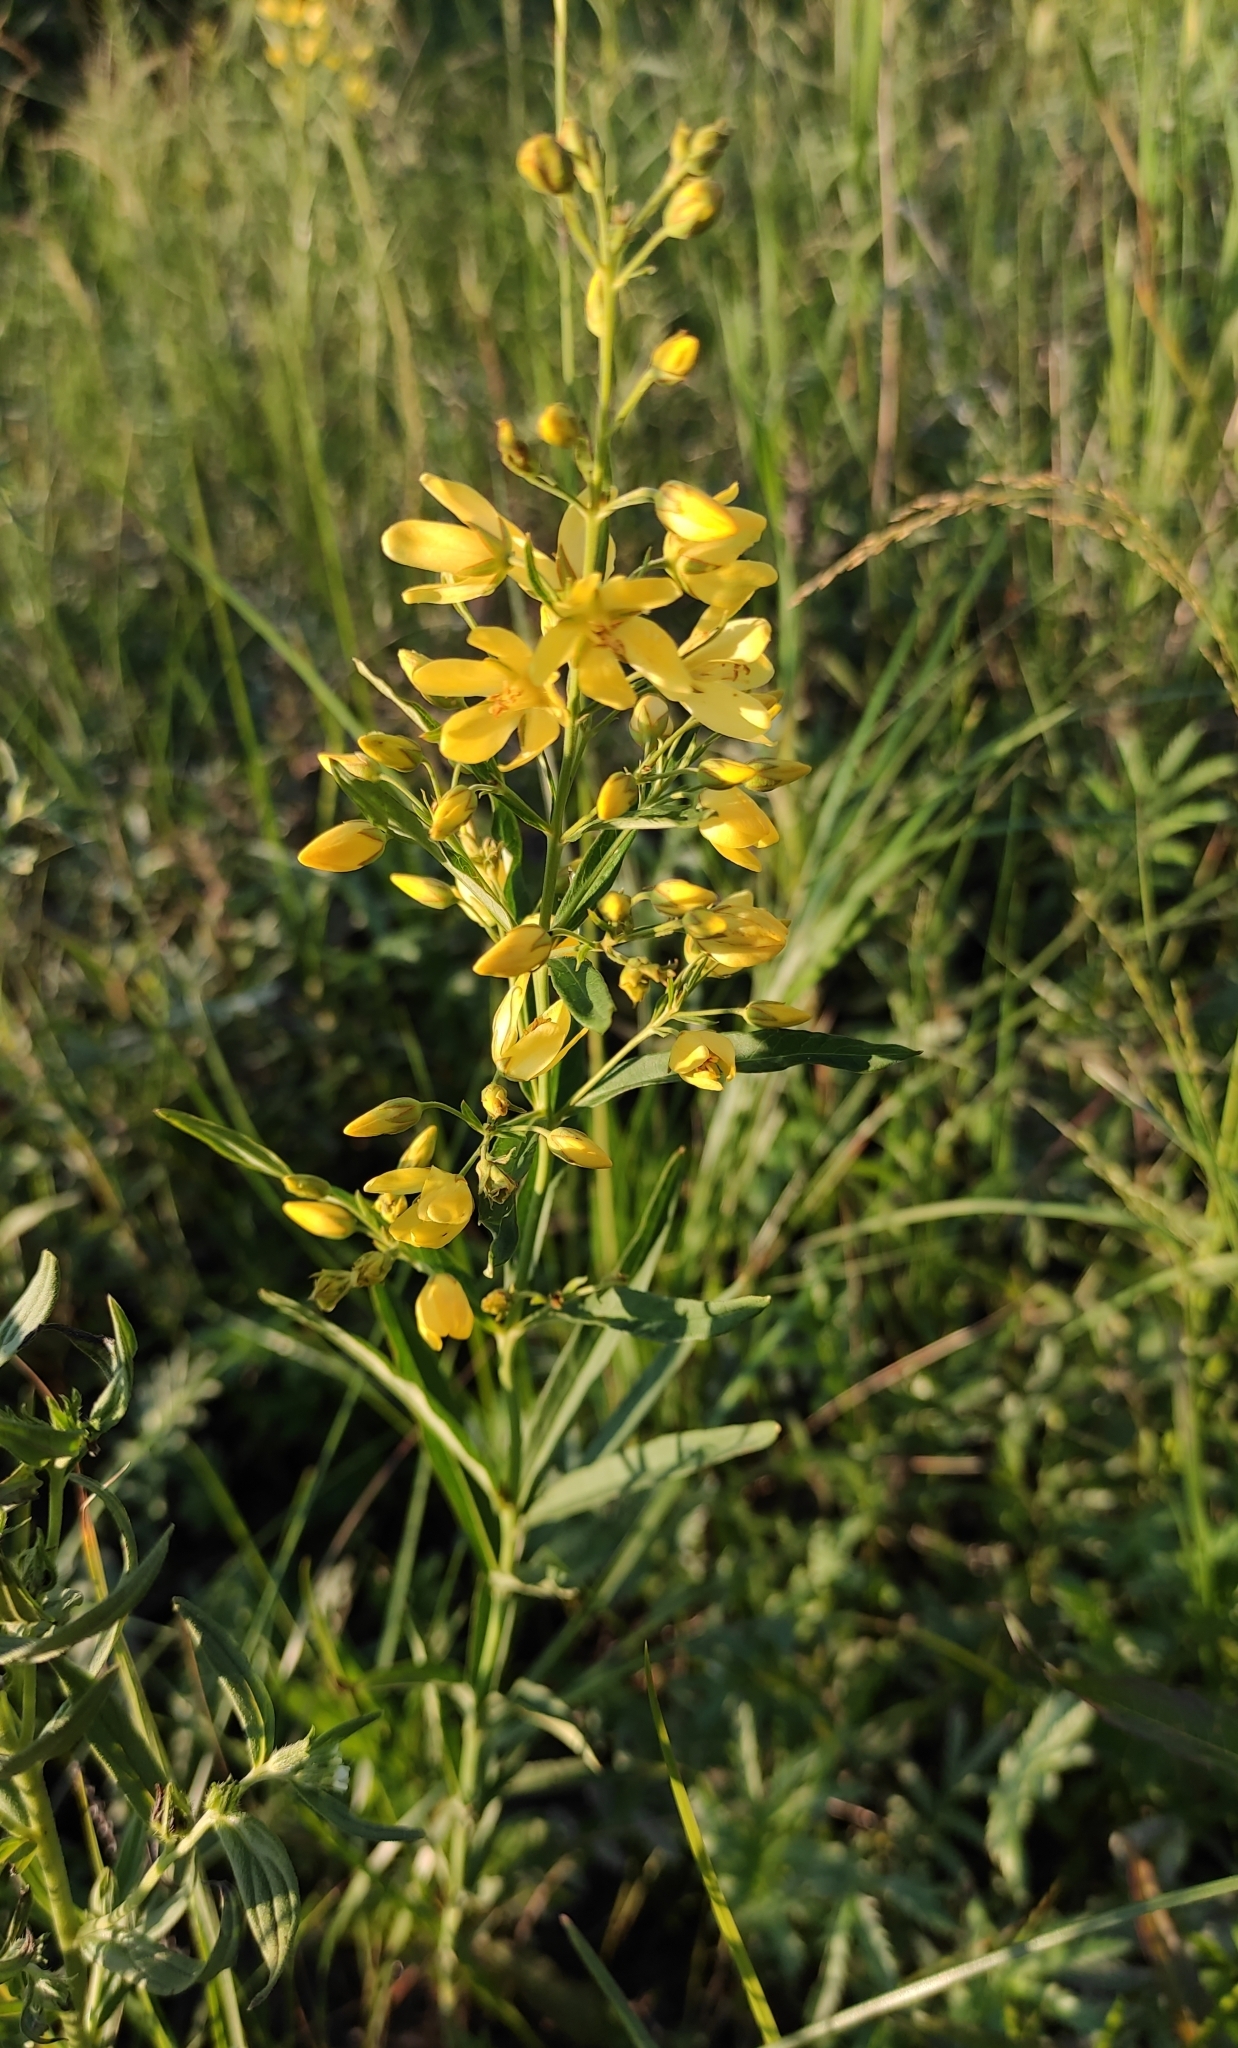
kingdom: Plantae
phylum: Tracheophyta
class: Magnoliopsida
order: Ericales
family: Primulaceae
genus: Lysimachia
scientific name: Lysimachia davurica
